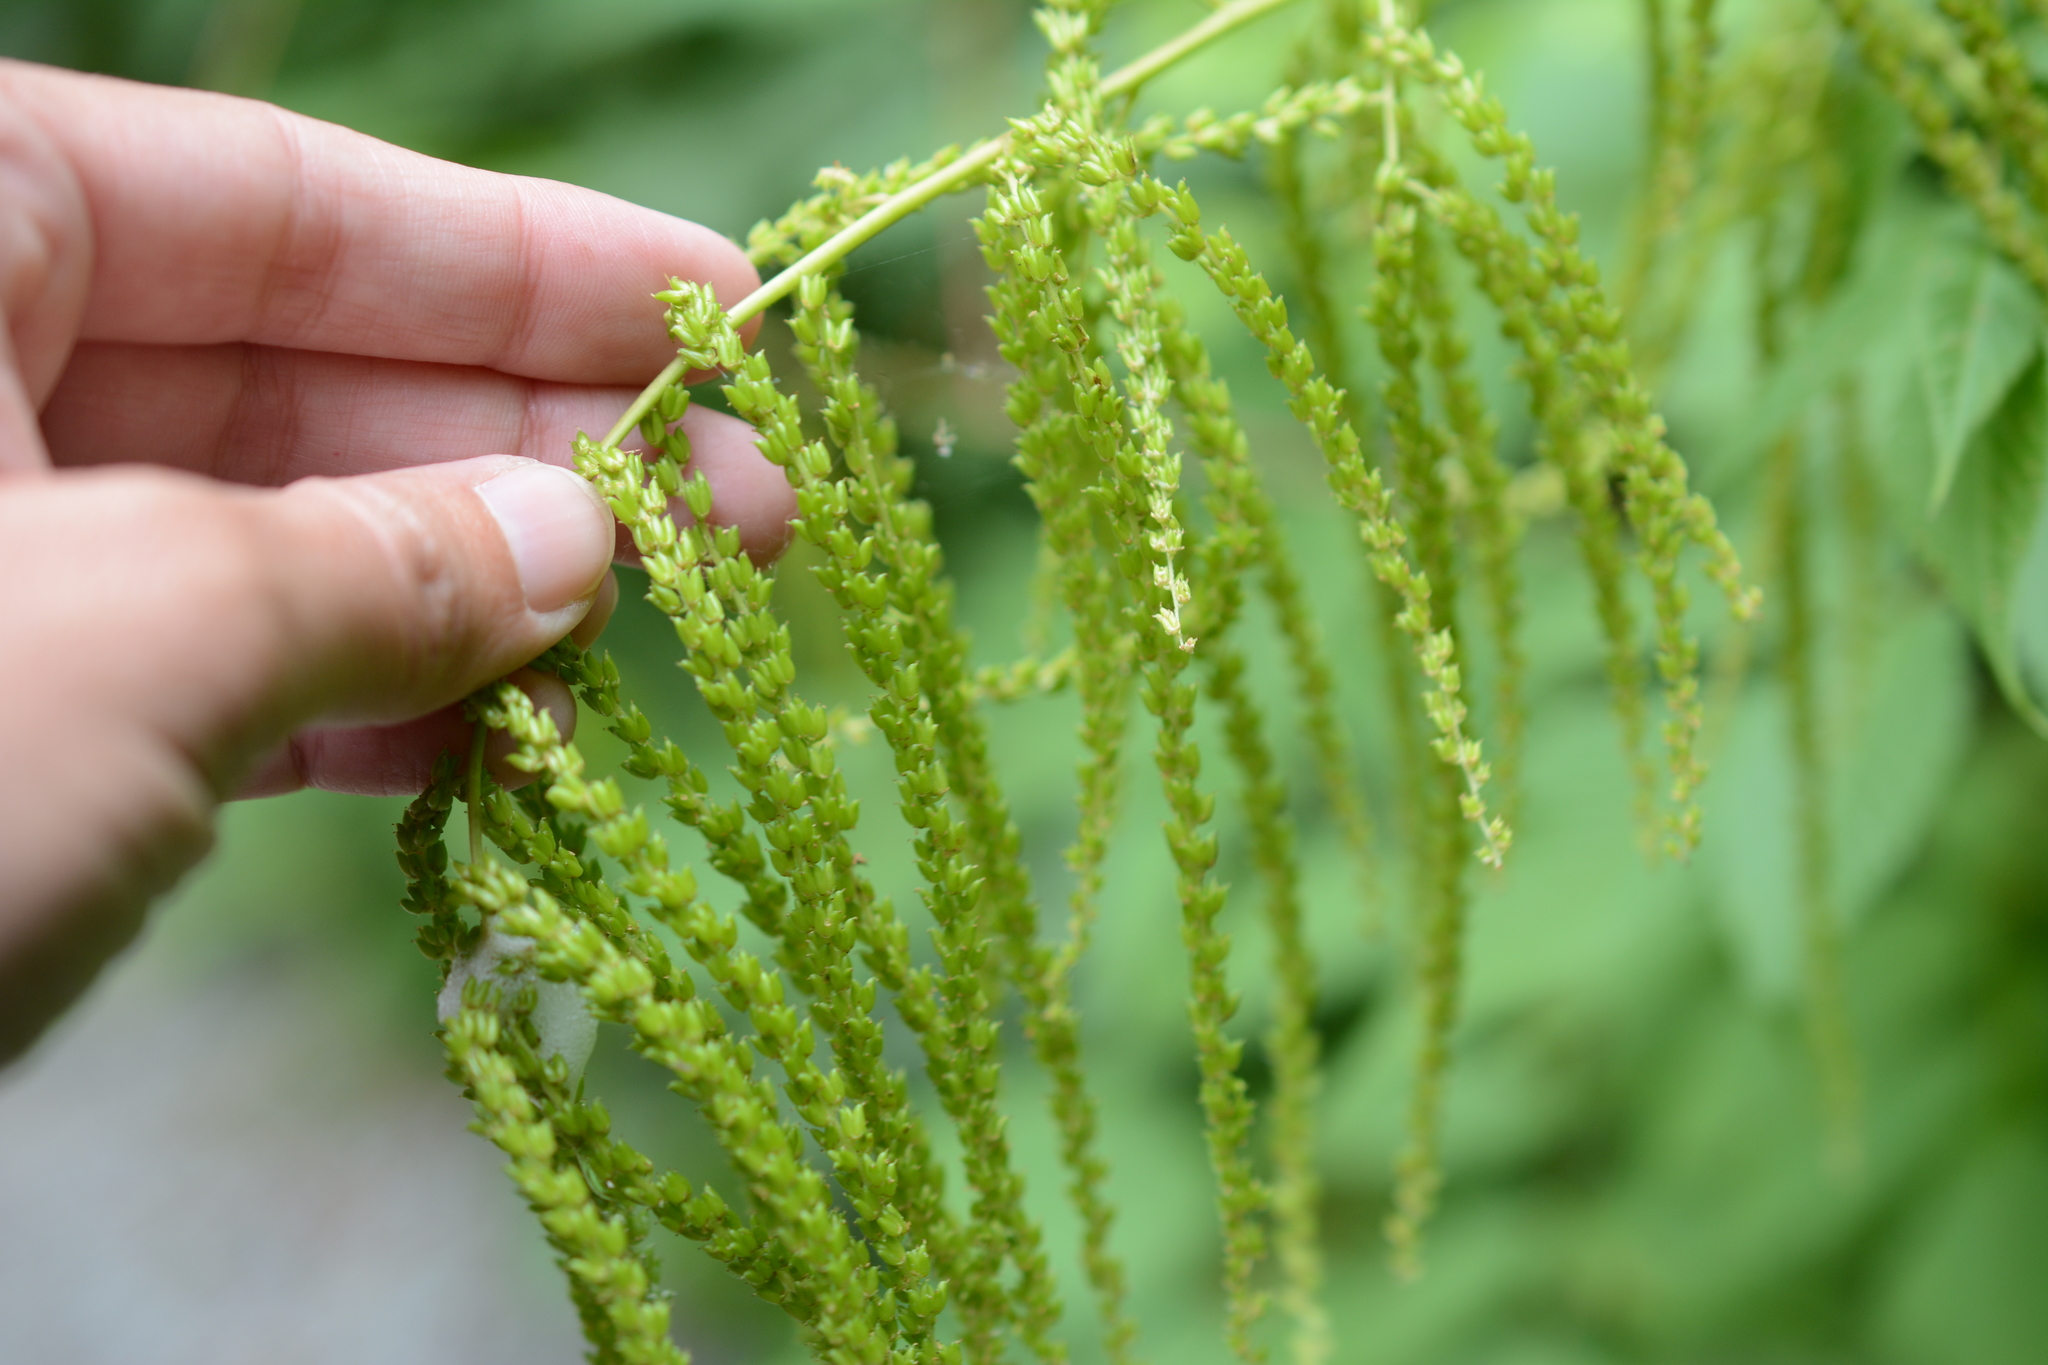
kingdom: Plantae
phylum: Tracheophyta
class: Magnoliopsida
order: Rosales
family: Rosaceae
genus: Aruncus
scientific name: Aruncus dioicus
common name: Buck's-beard
